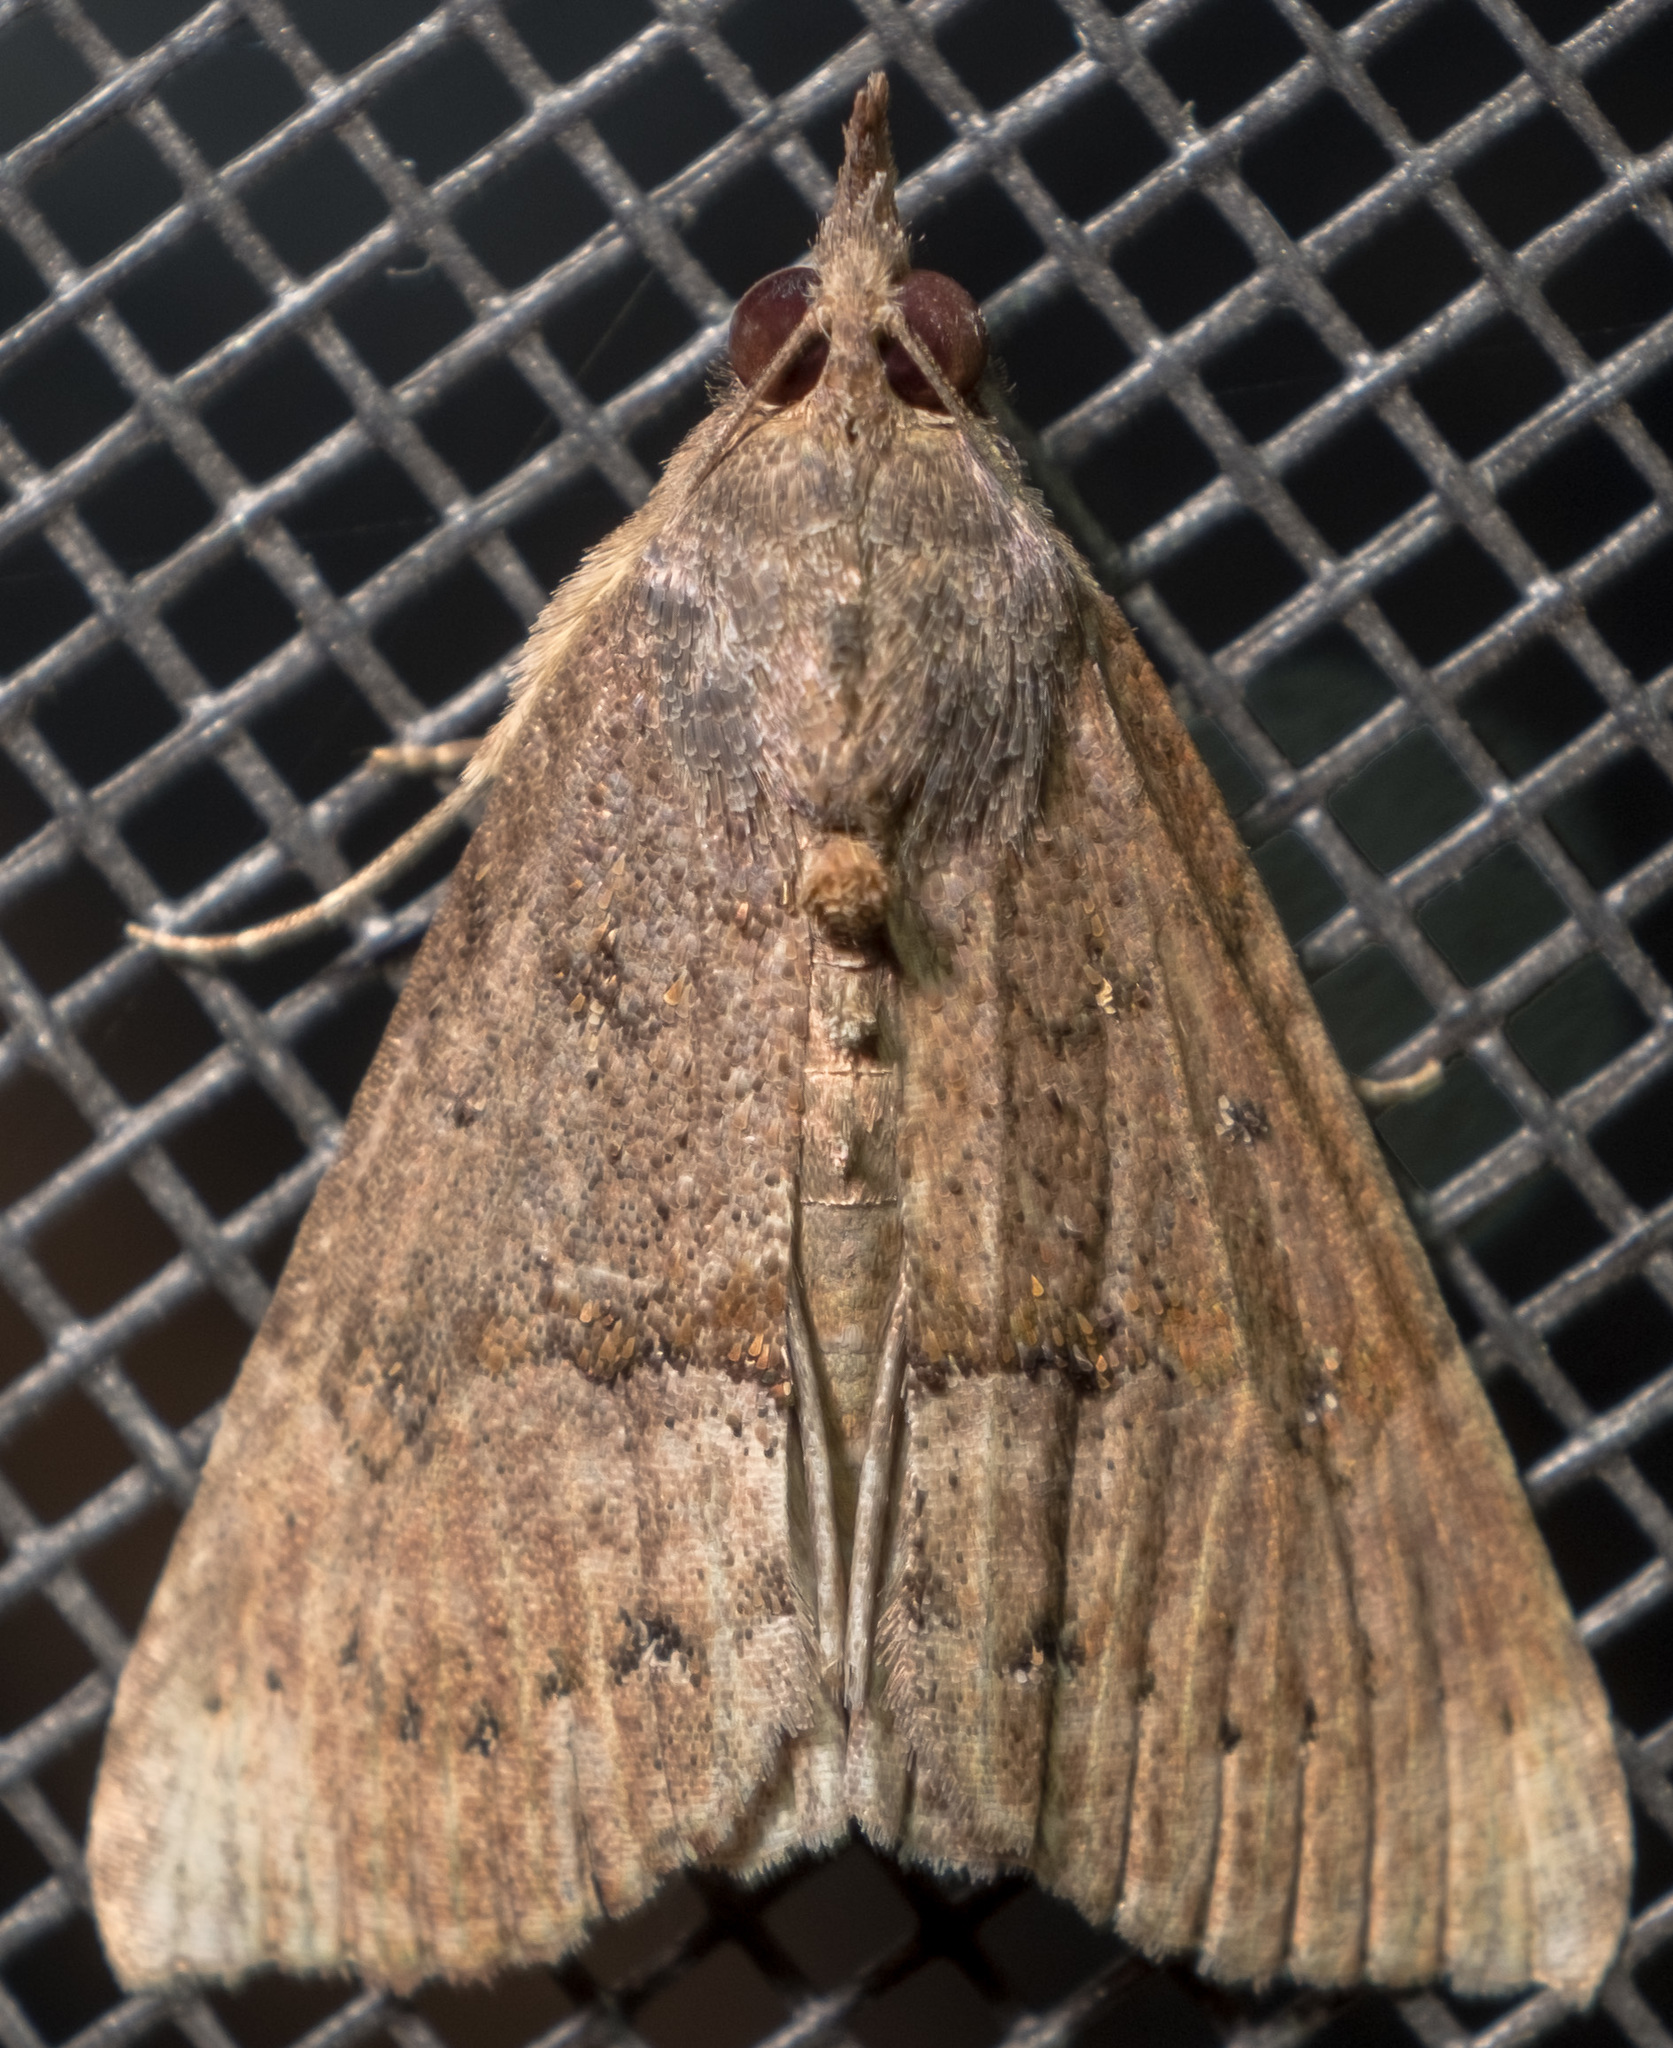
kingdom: Animalia
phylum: Arthropoda
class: Insecta
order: Lepidoptera
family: Erebidae
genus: Hypena
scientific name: Hypena scabra
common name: Green cloverworm
